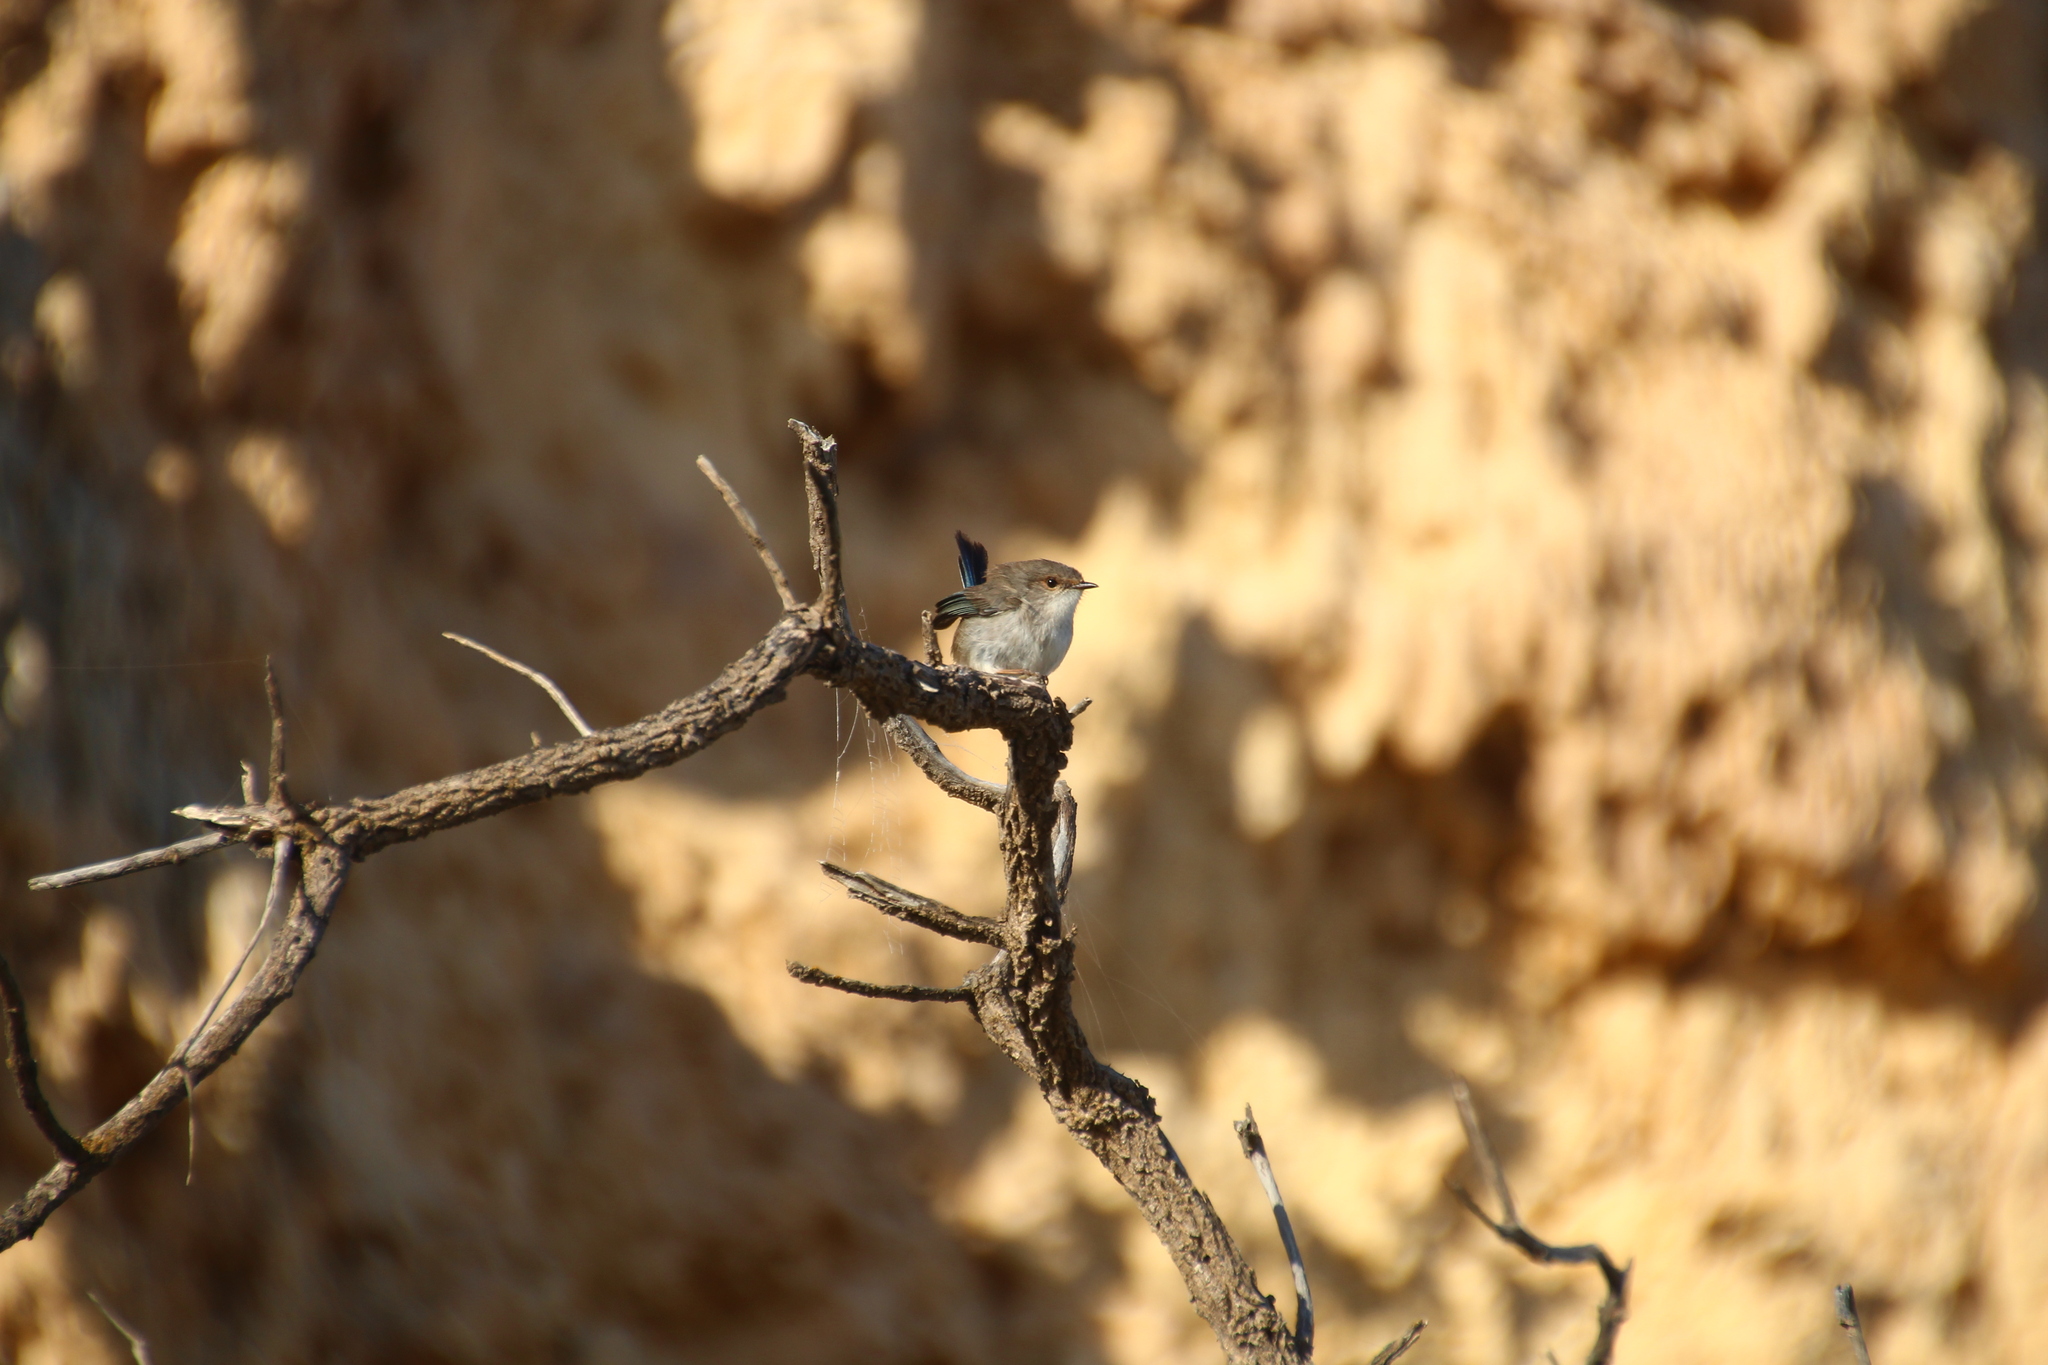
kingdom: Animalia
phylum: Chordata
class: Aves
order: Passeriformes
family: Maluridae
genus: Malurus
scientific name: Malurus cyaneus
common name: Superb fairywren
